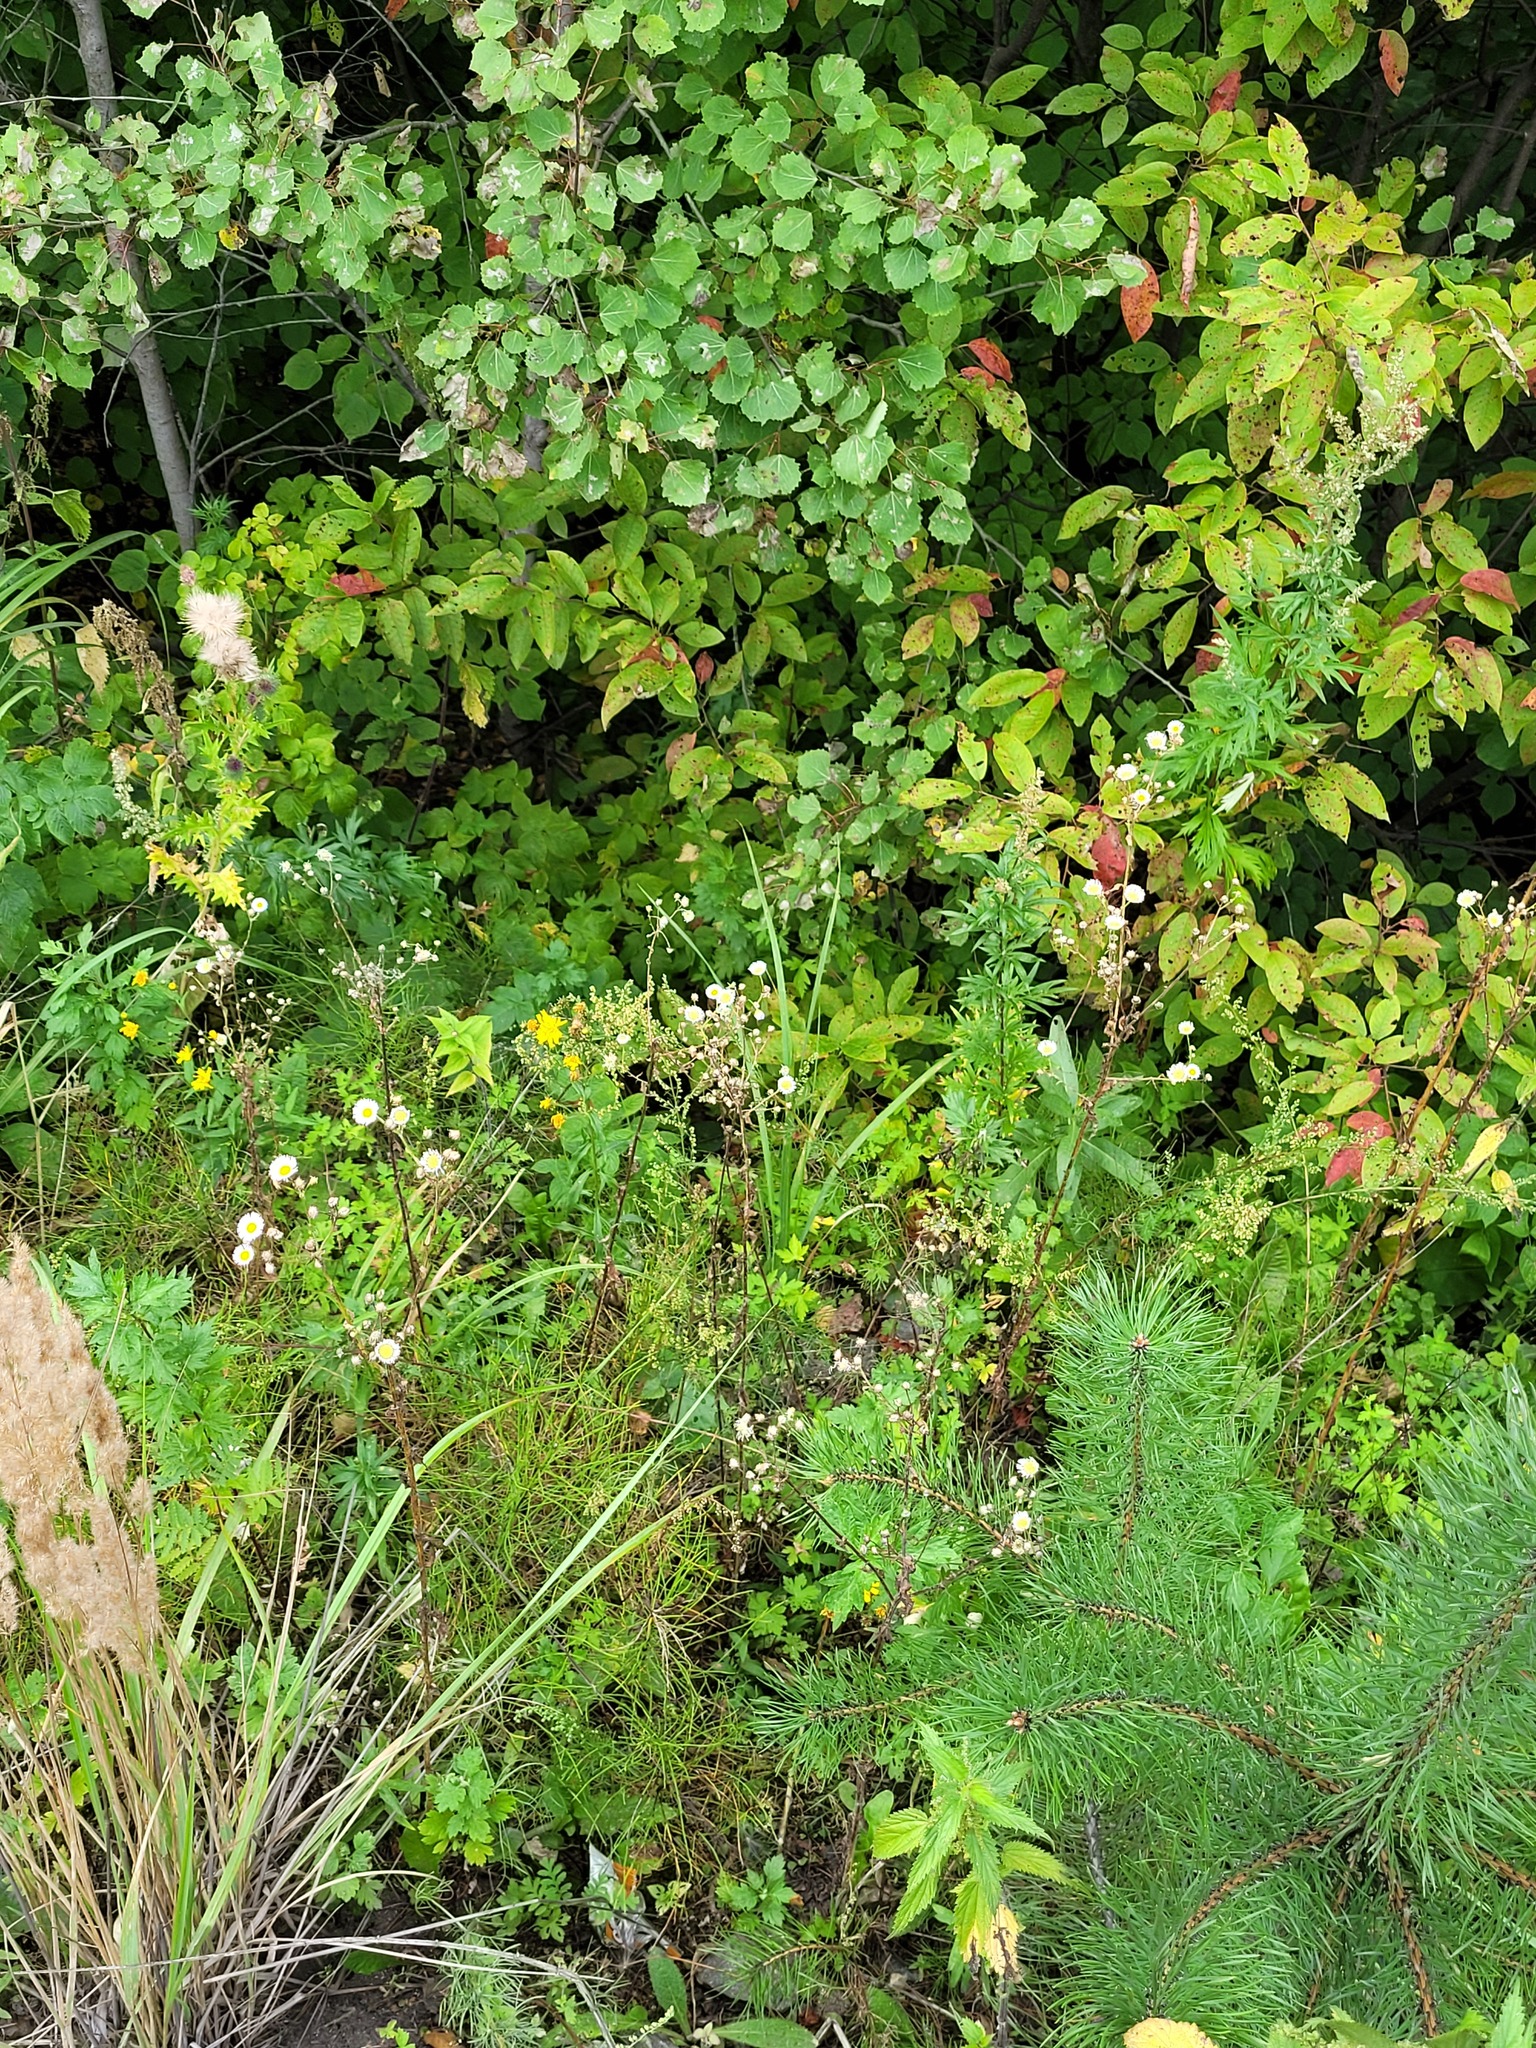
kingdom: Plantae
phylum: Tracheophyta
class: Magnoliopsida
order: Asterales
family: Asteraceae
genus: Erigeron
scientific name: Erigeron annuus
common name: Tall fleabane
